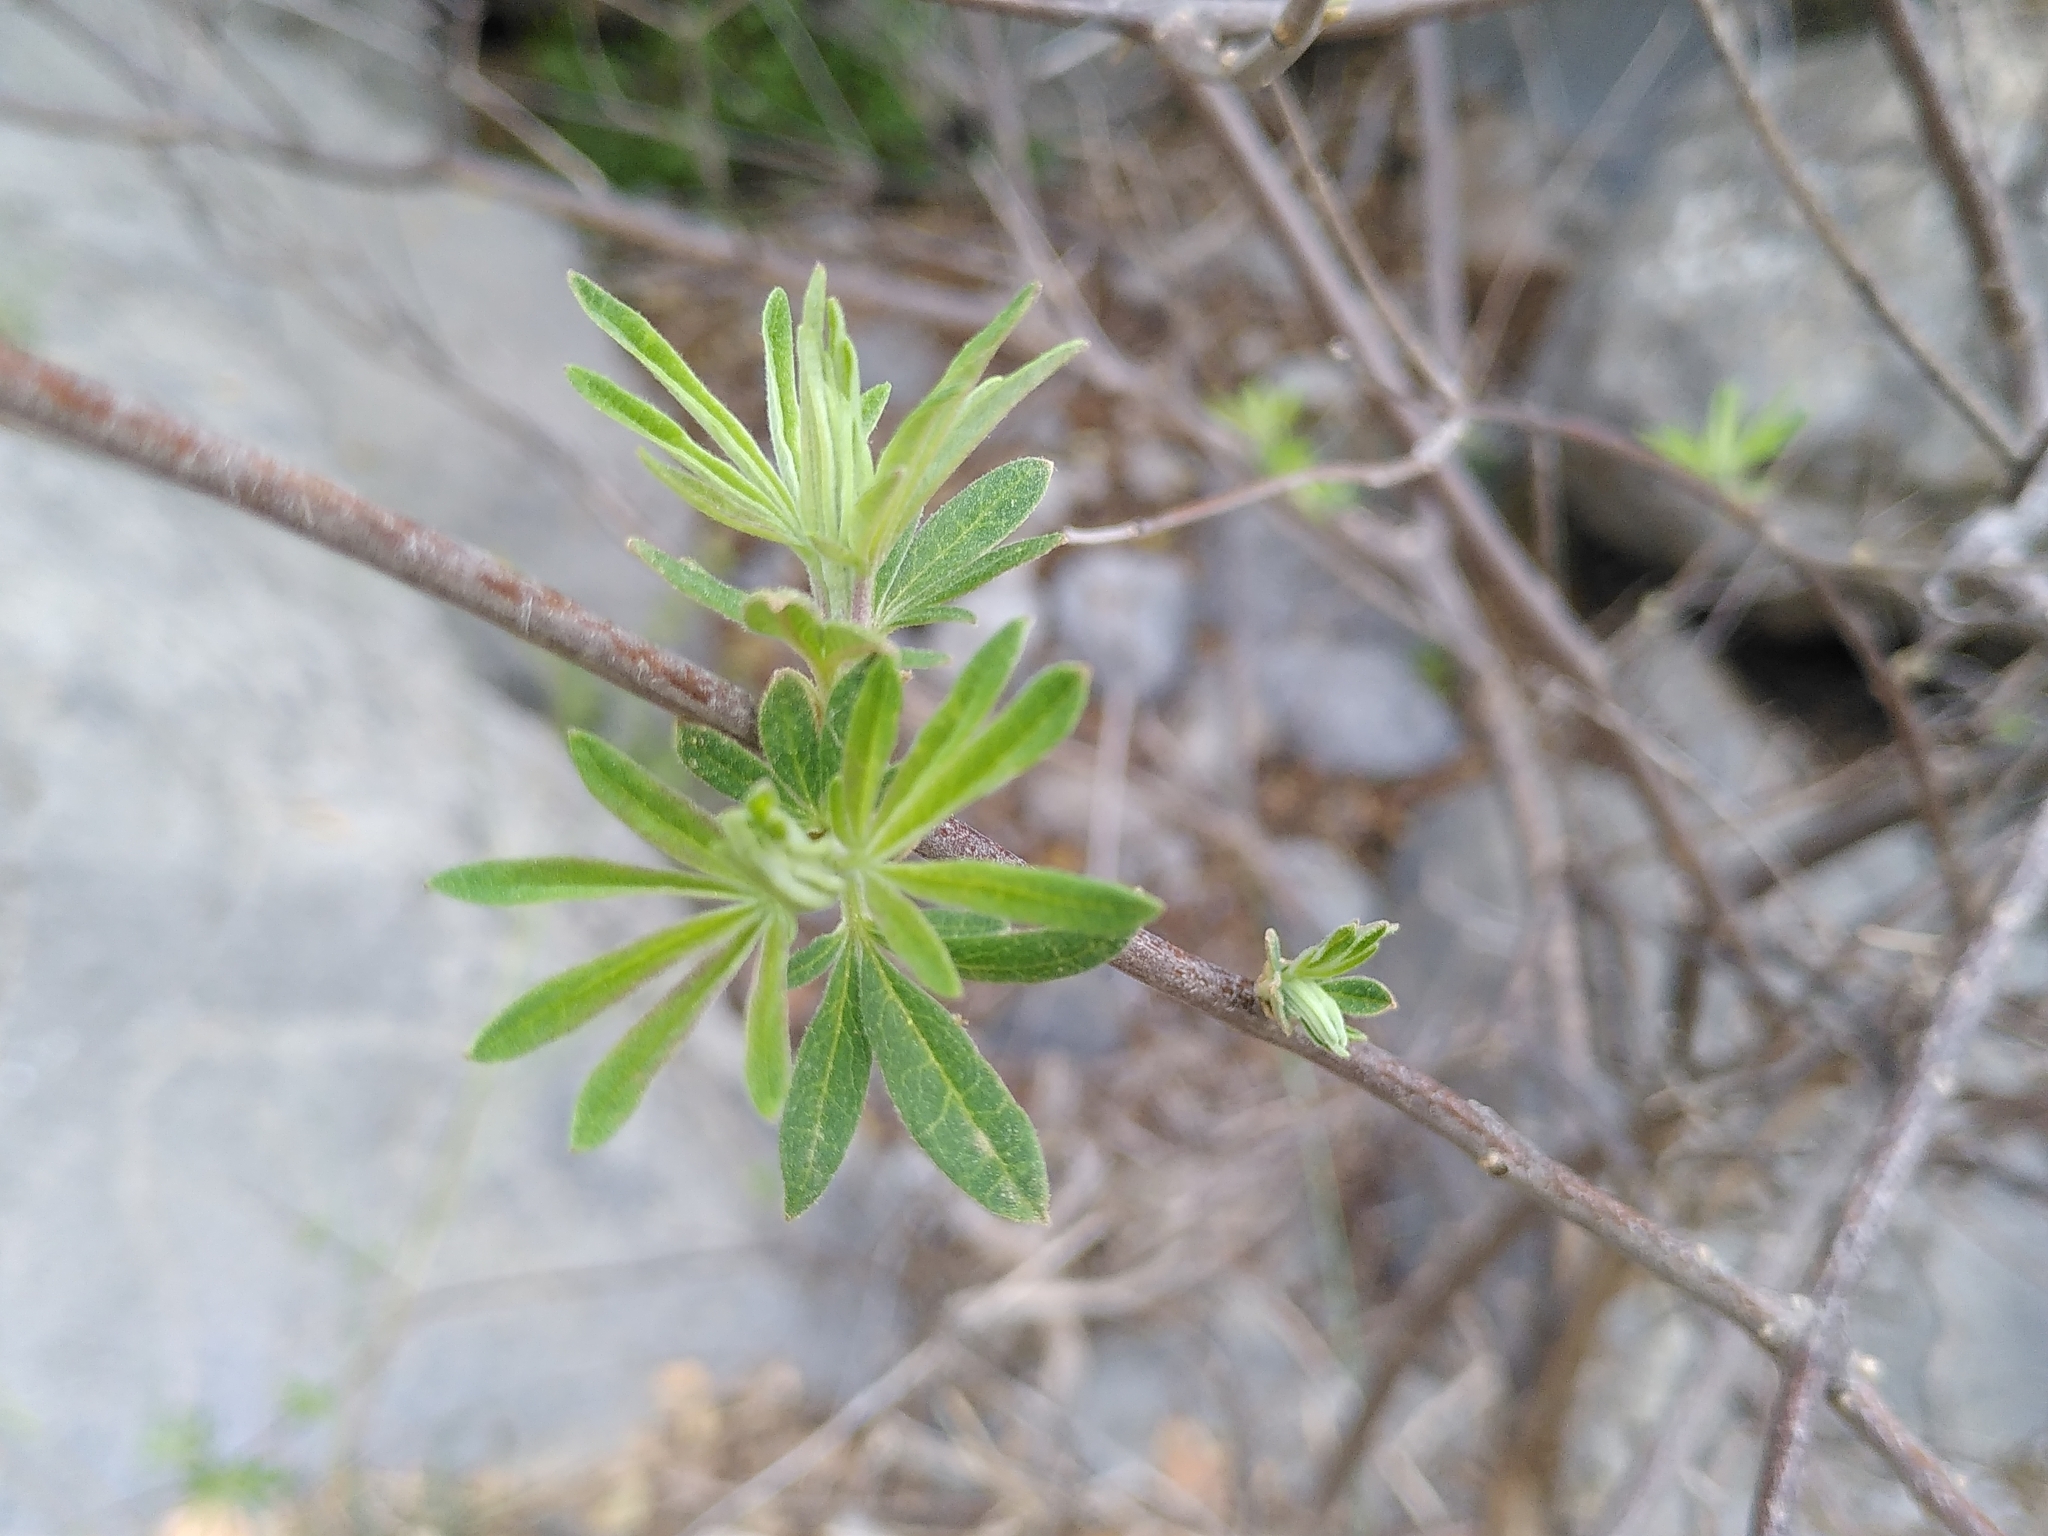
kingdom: Plantae
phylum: Tracheophyta
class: Magnoliopsida
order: Fabales
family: Fabaceae
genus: Ebenus
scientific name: Ebenus cretica
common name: Cretan silver bush
